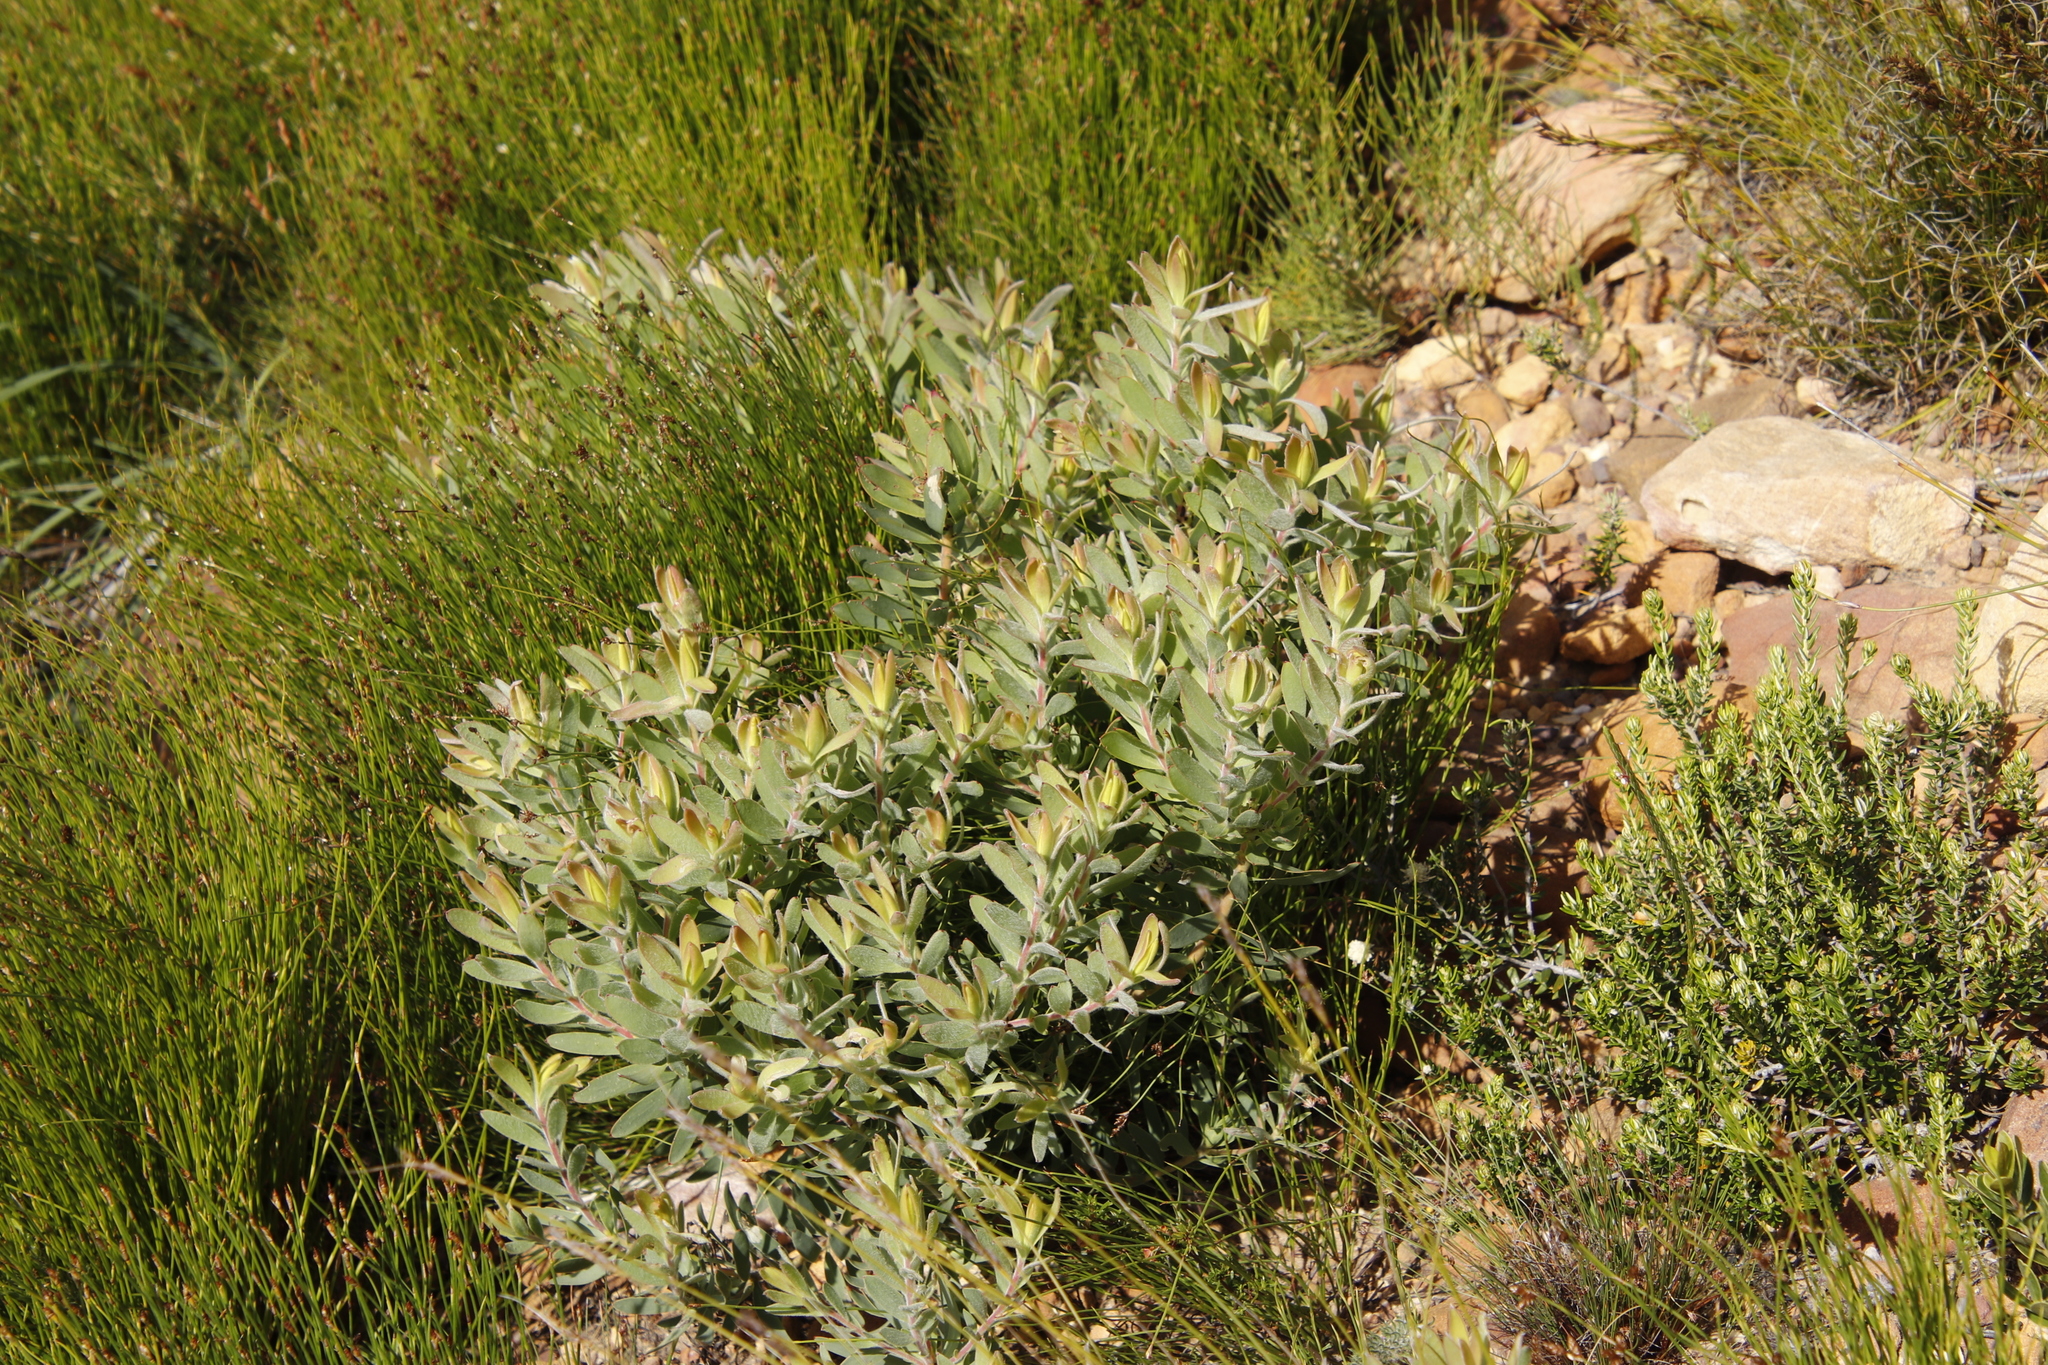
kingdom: Plantae
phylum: Tracheophyta
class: Magnoliopsida
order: Proteales
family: Proteaceae
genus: Leucadendron
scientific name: Leucadendron sessile
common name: Western sunbush
